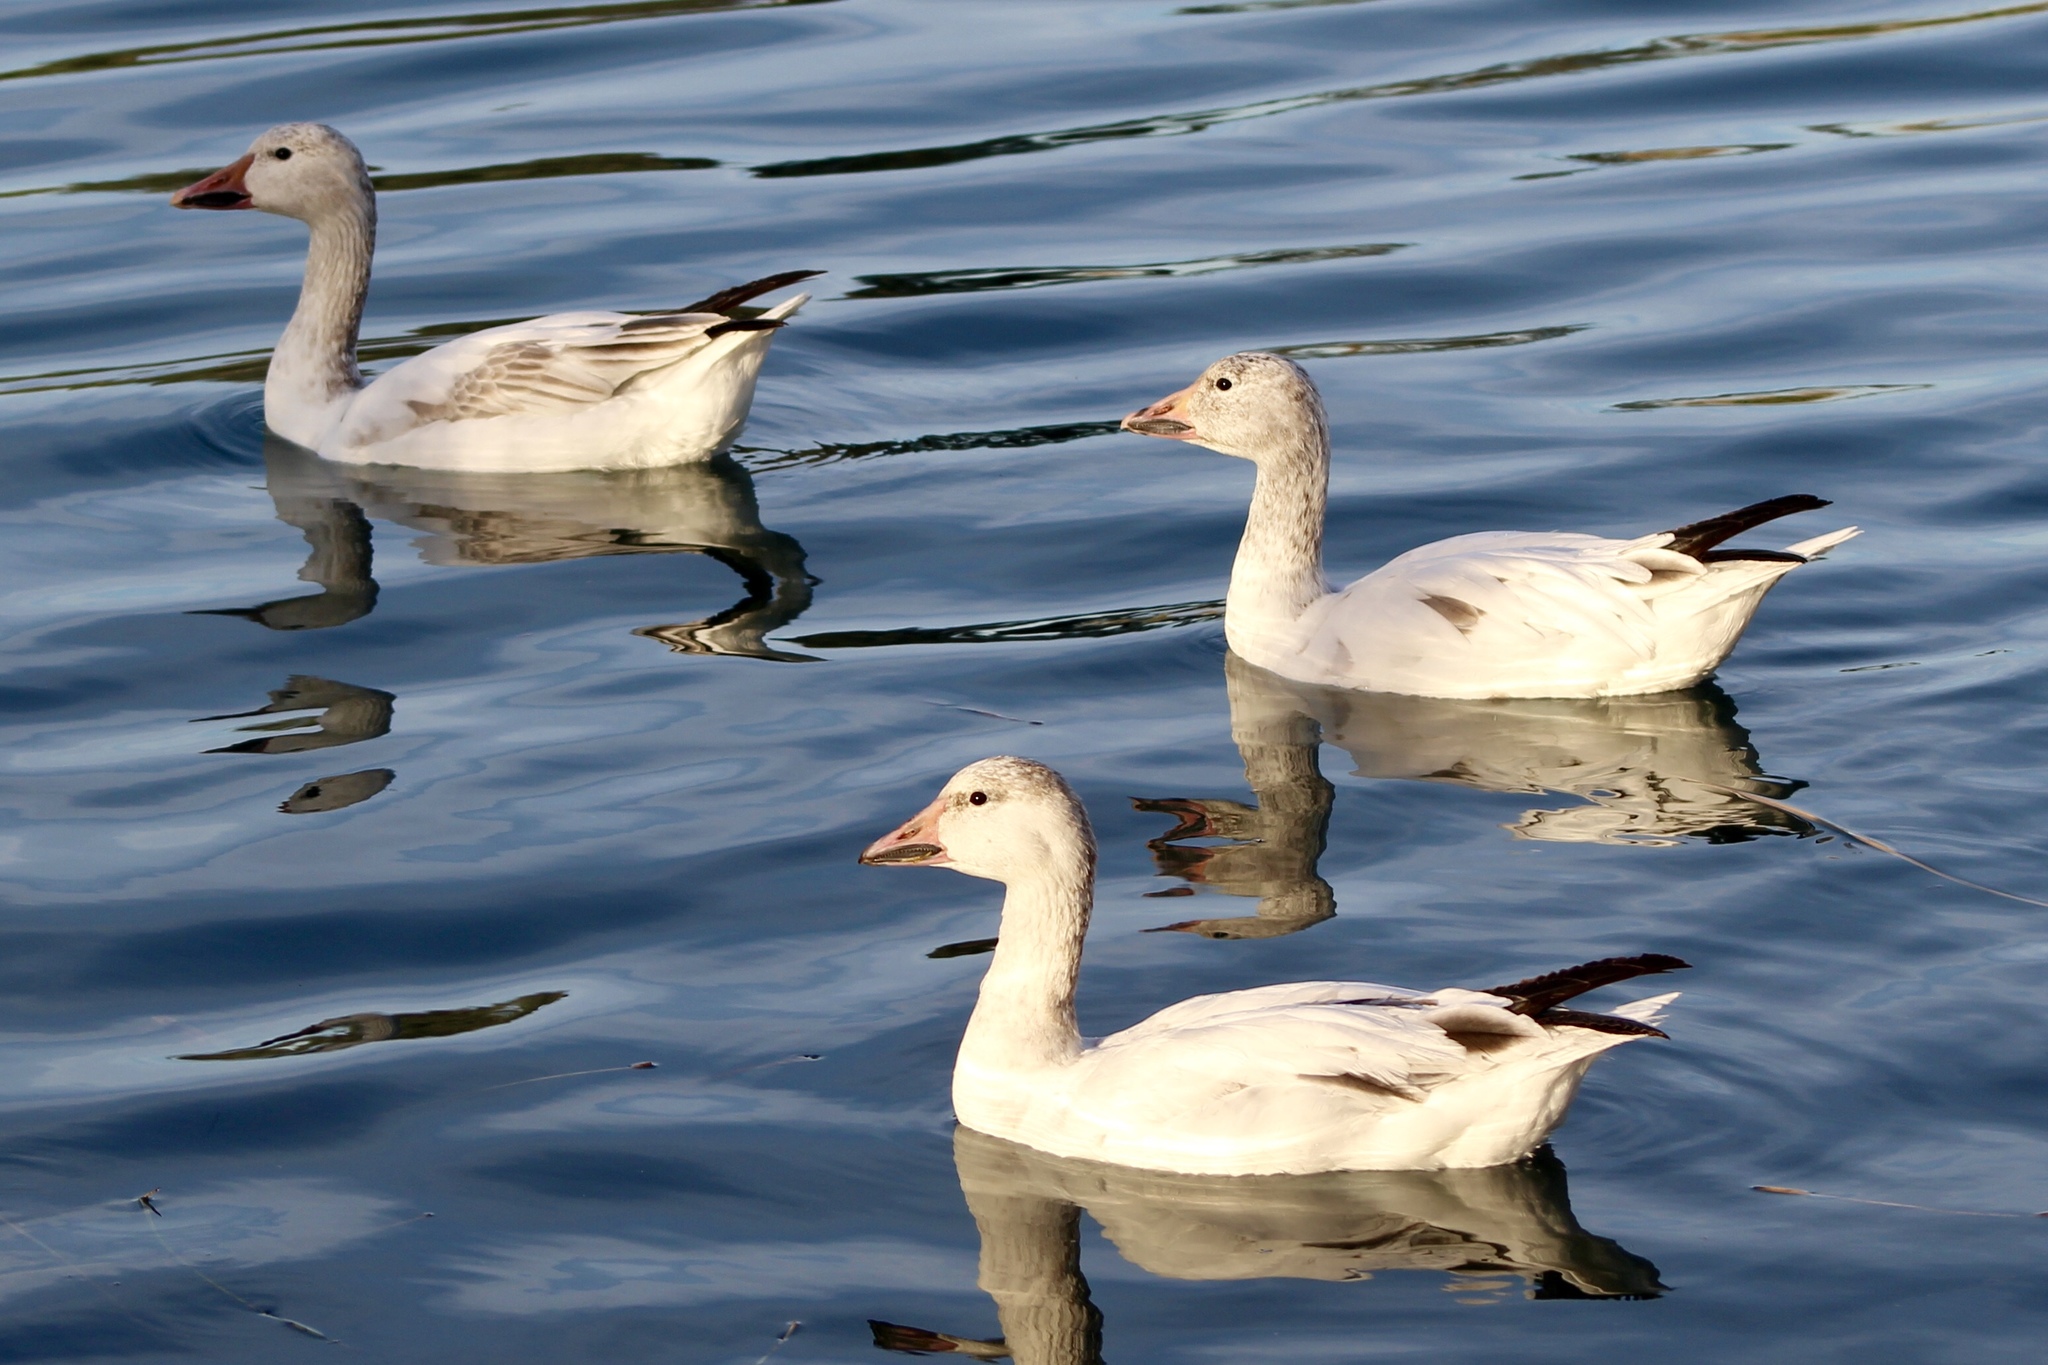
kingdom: Animalia
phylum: Chordata
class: Aves
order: Anseriformes
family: Anatidae
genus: Anser
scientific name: Anser caerulescens
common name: Snow goose
